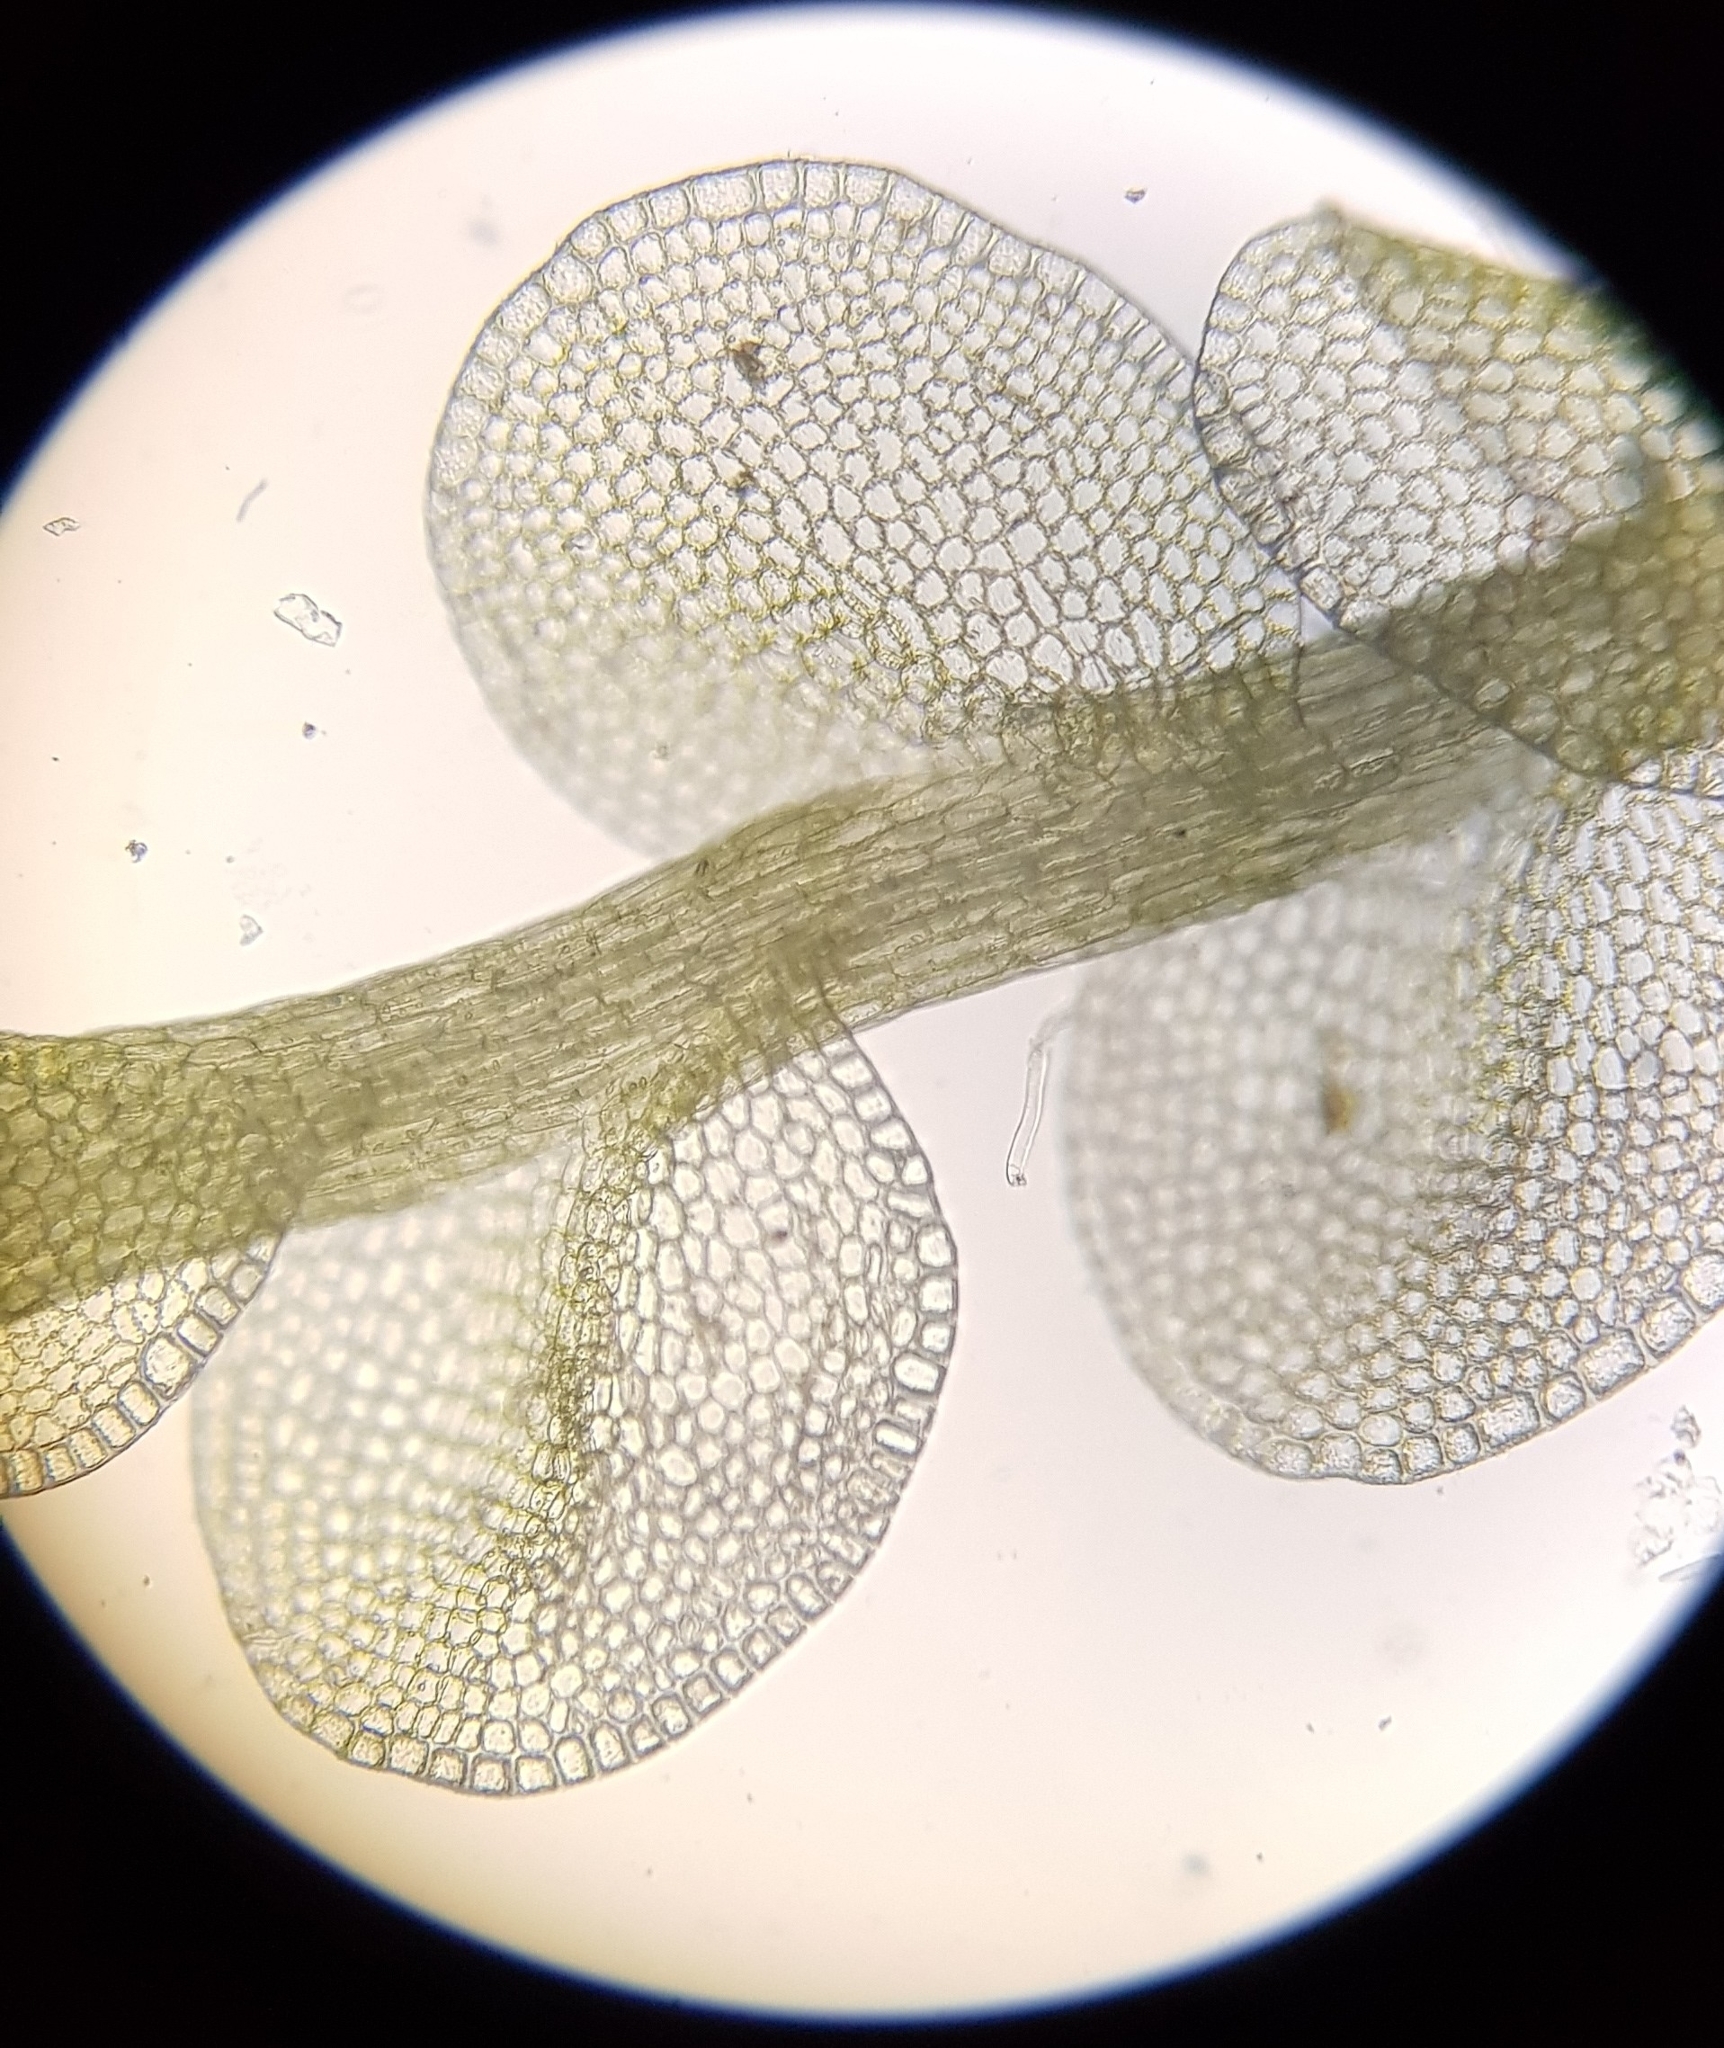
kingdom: Plantae
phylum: Marchantiophyta
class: Jungermanniopsida
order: Jungermanniales
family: Solenostomataceae
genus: Solenostoma
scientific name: Solenostoma gracillimum
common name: Crenulated flapwort
